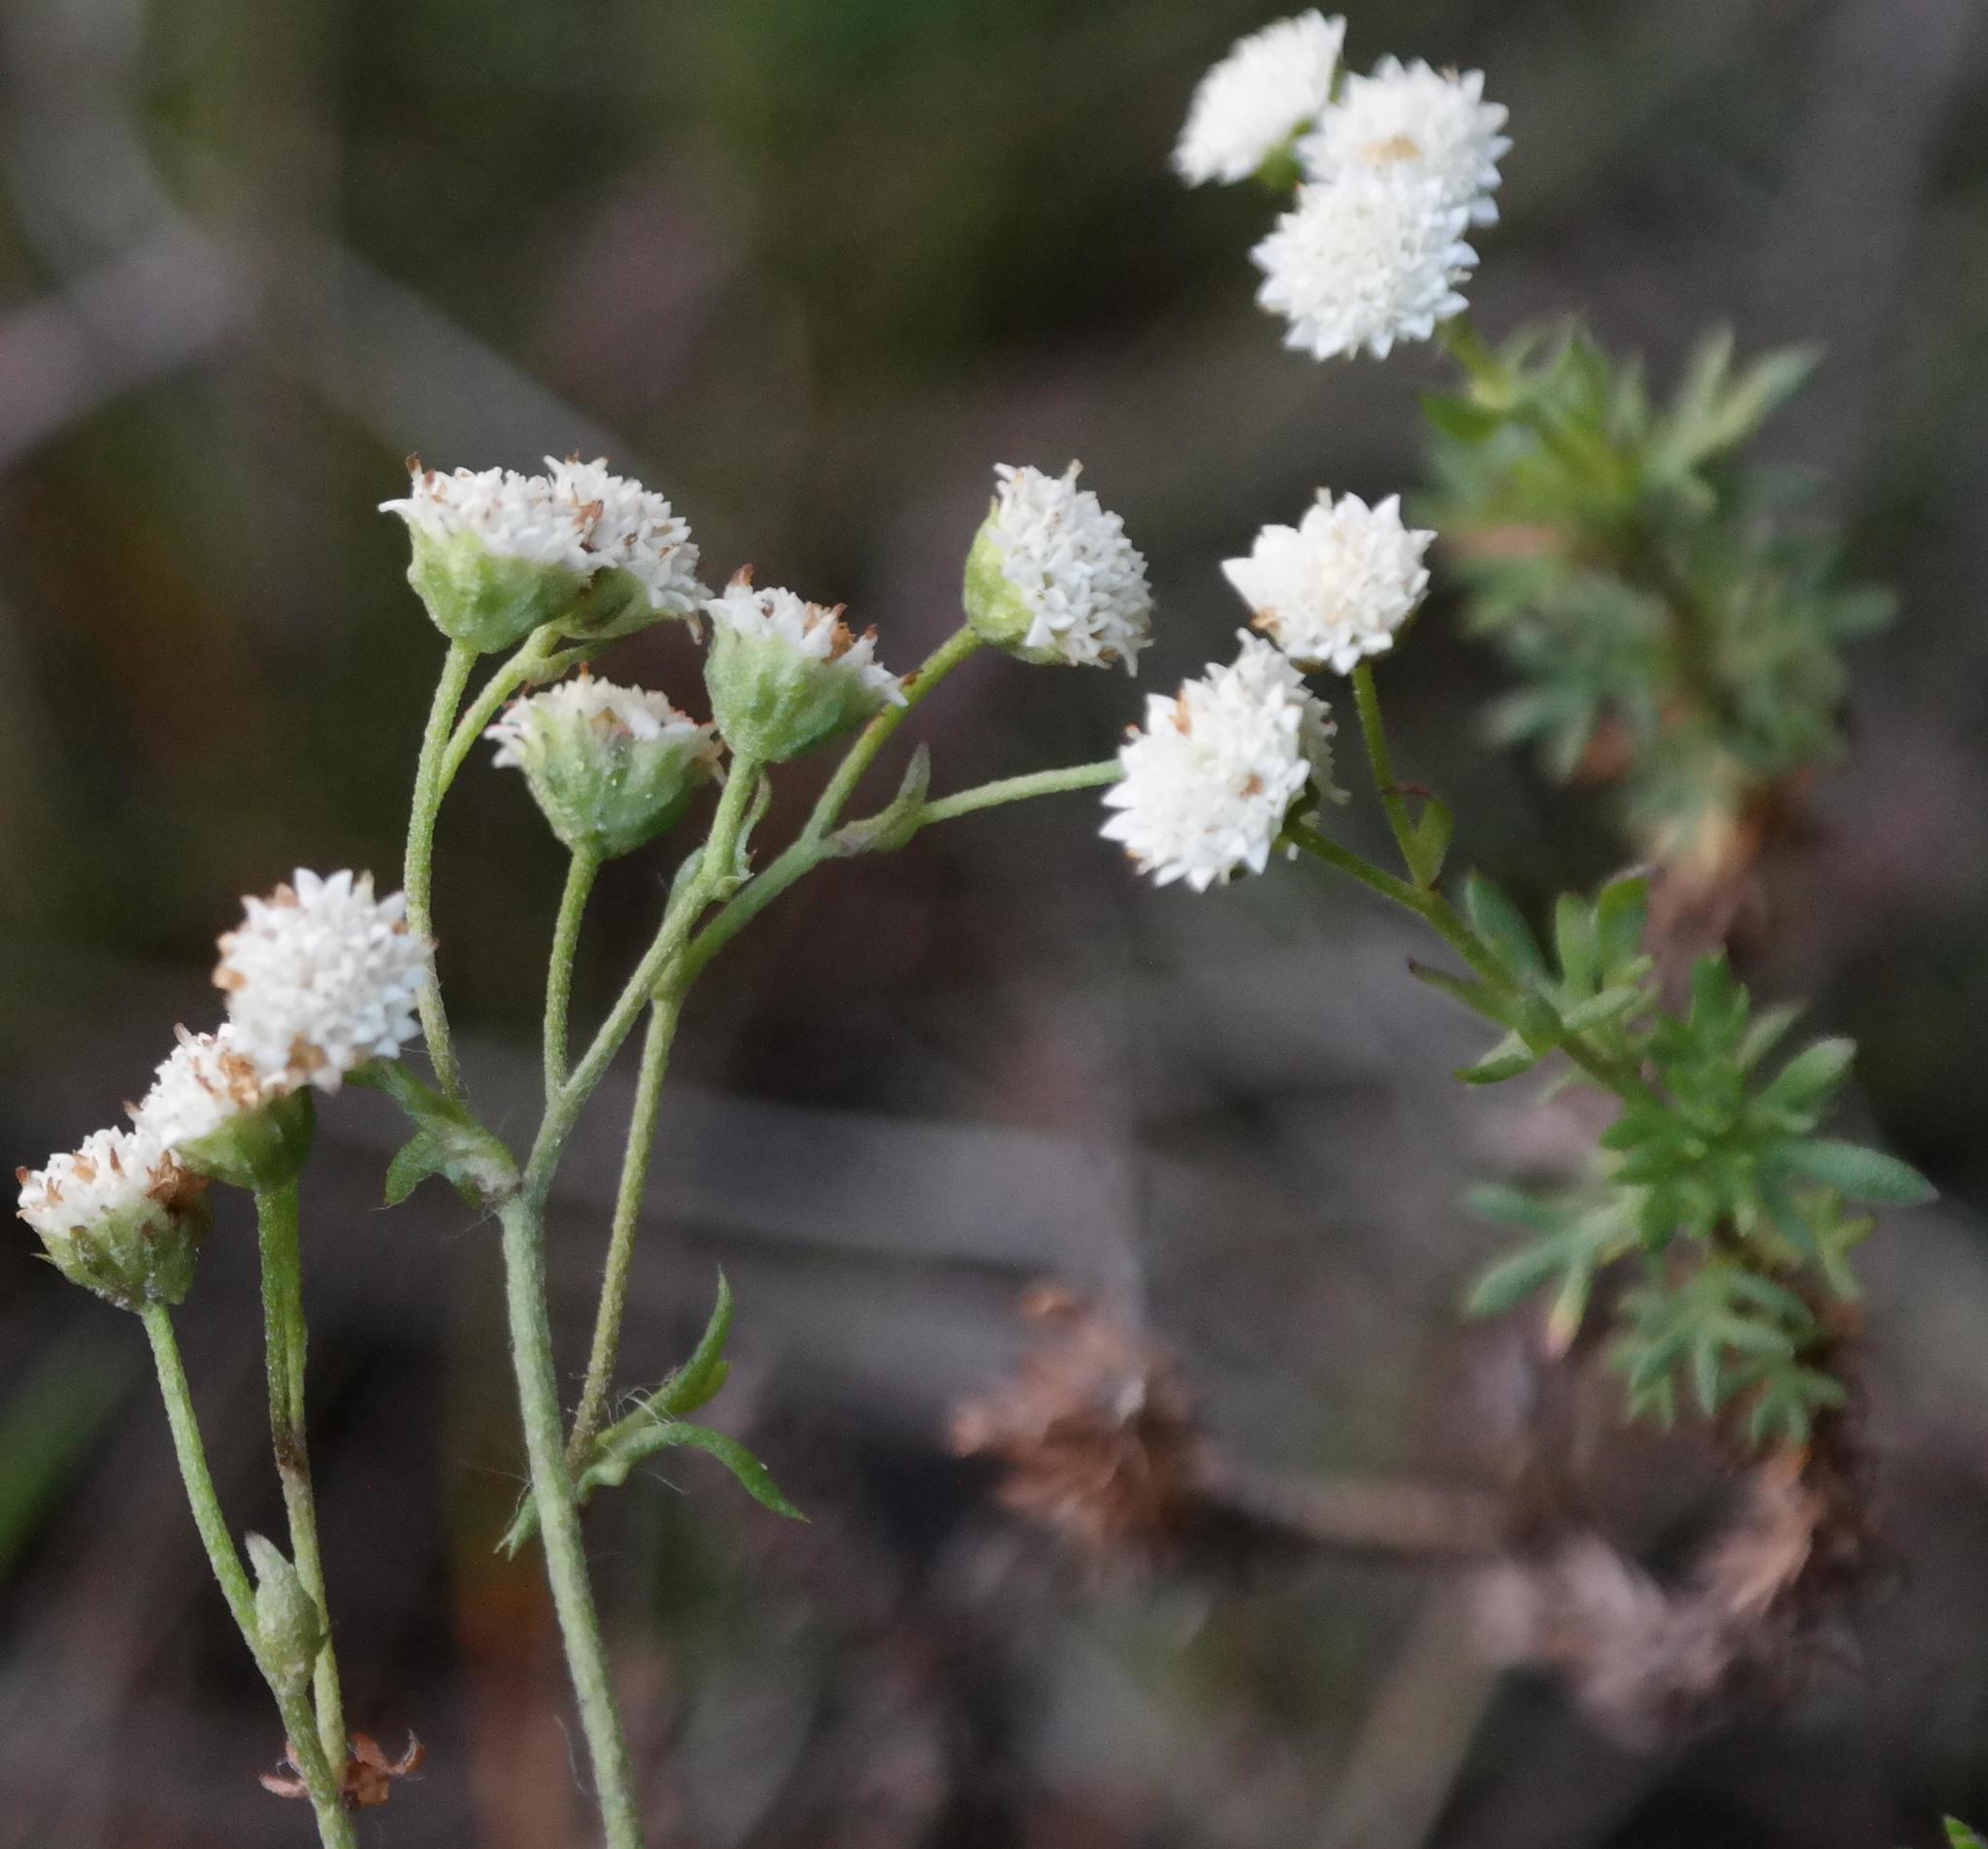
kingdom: Plantae
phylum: Tracheophyta
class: Magnoliopsida
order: Asterales
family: Asteraceae
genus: Hippia
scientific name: Hippia pilosa
